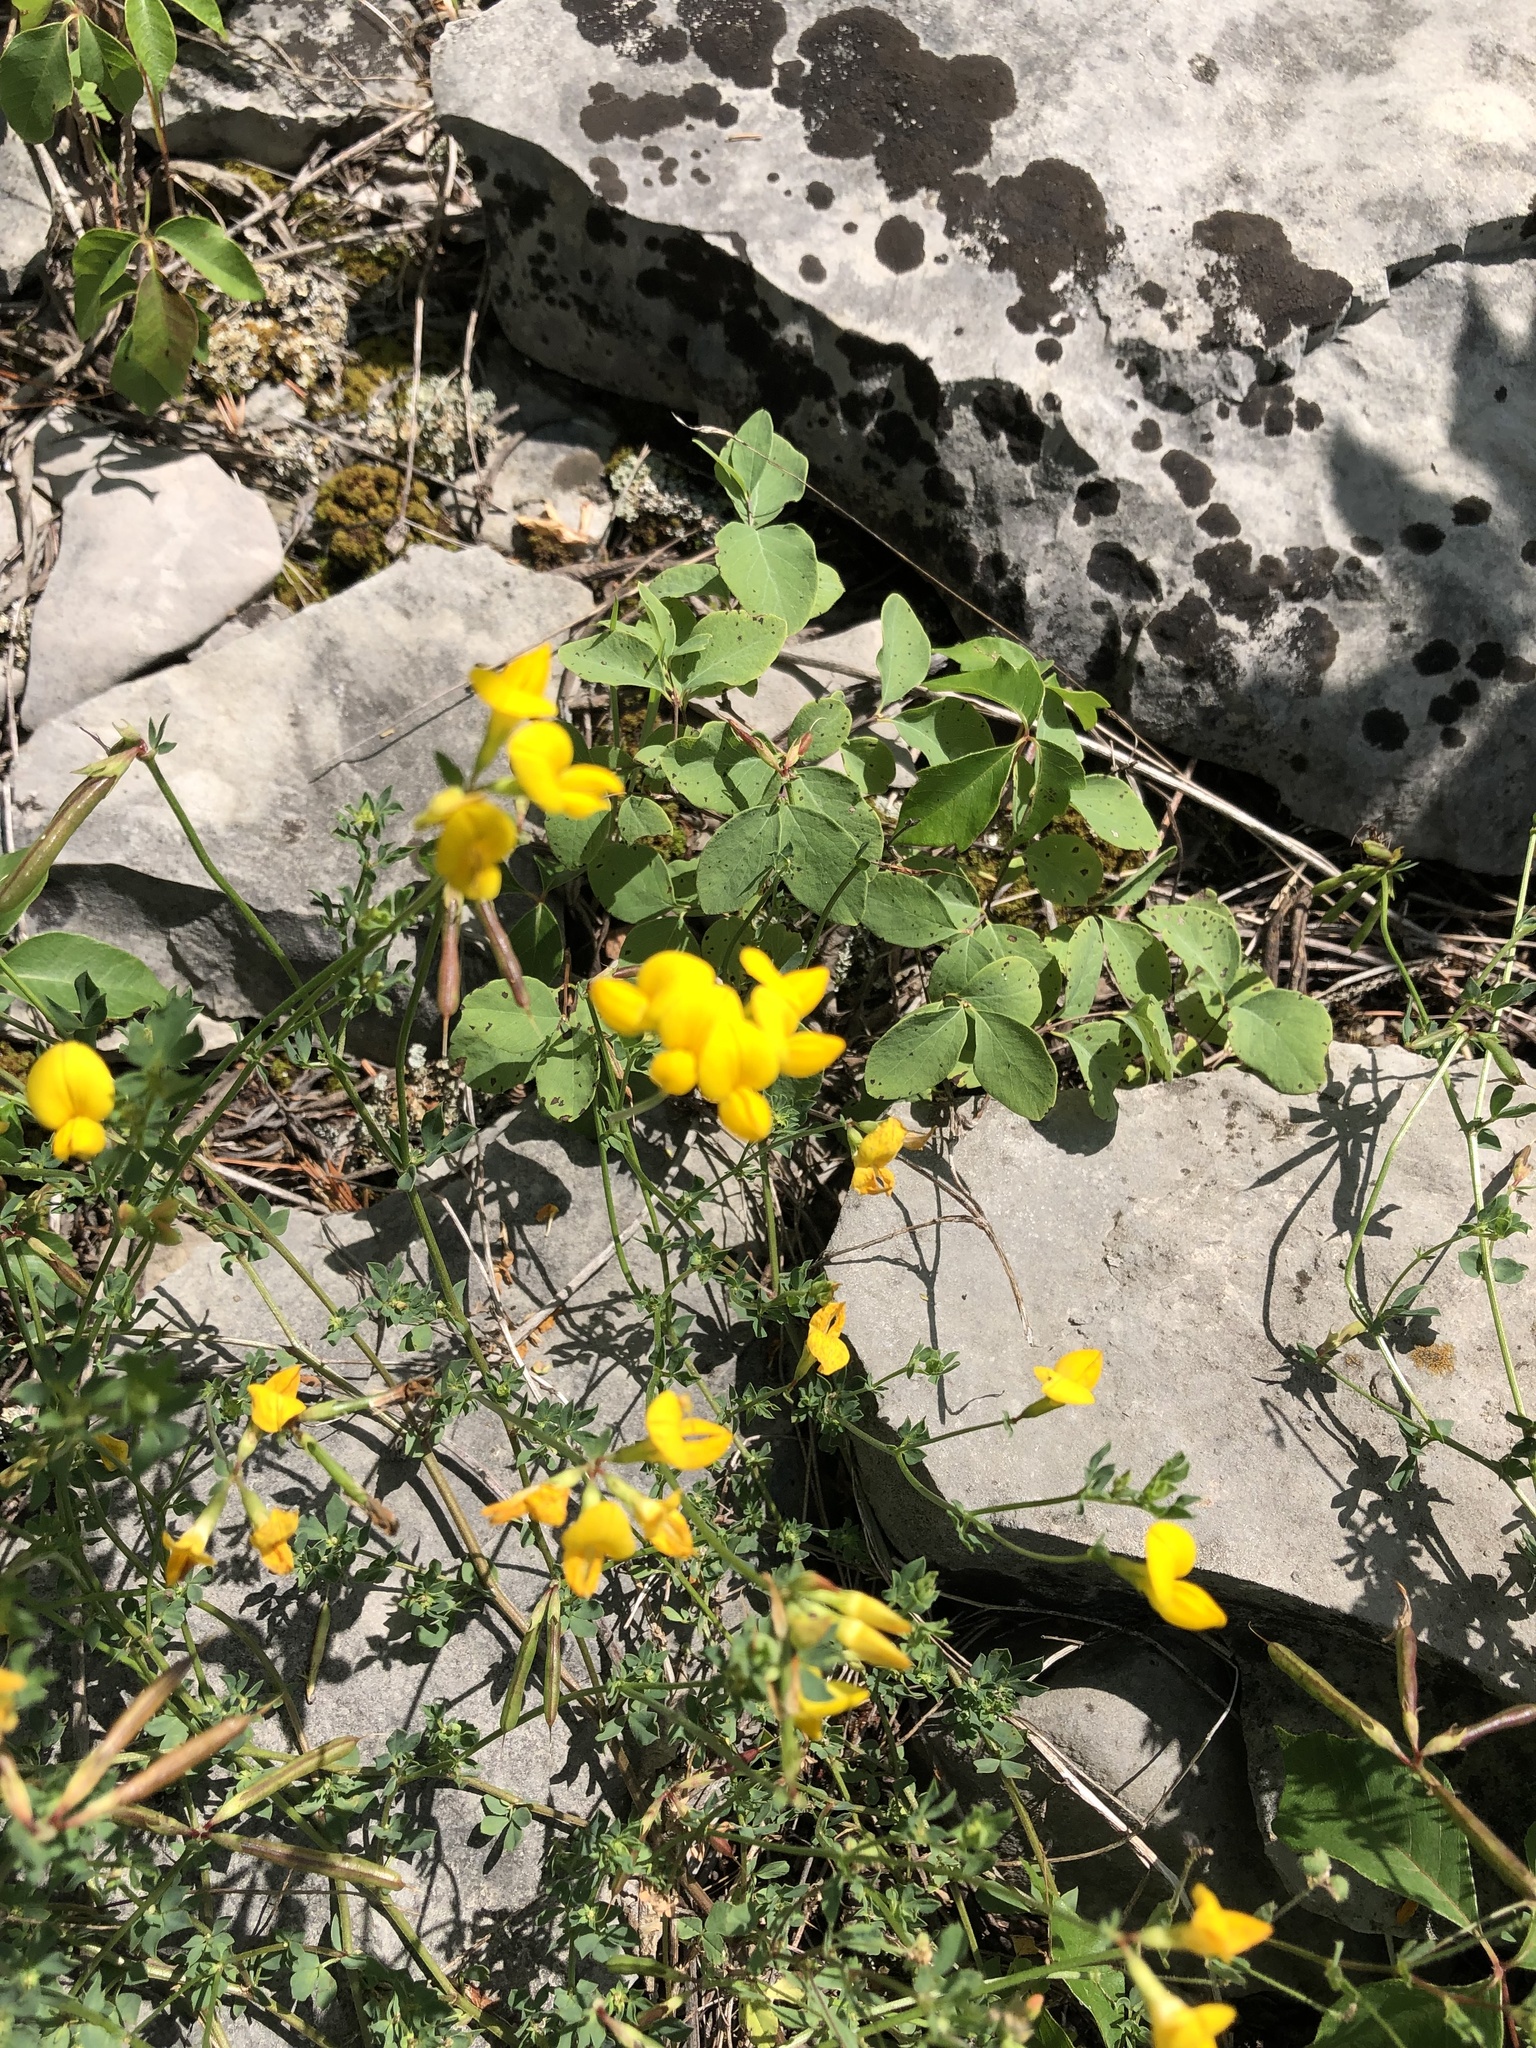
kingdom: Plantae
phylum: Tracheophyta
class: Magnoliopsida
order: Fabales
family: Fabaceae
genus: Lotus
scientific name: Lotus corniculatus
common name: Common bird's-foot-trefoil
